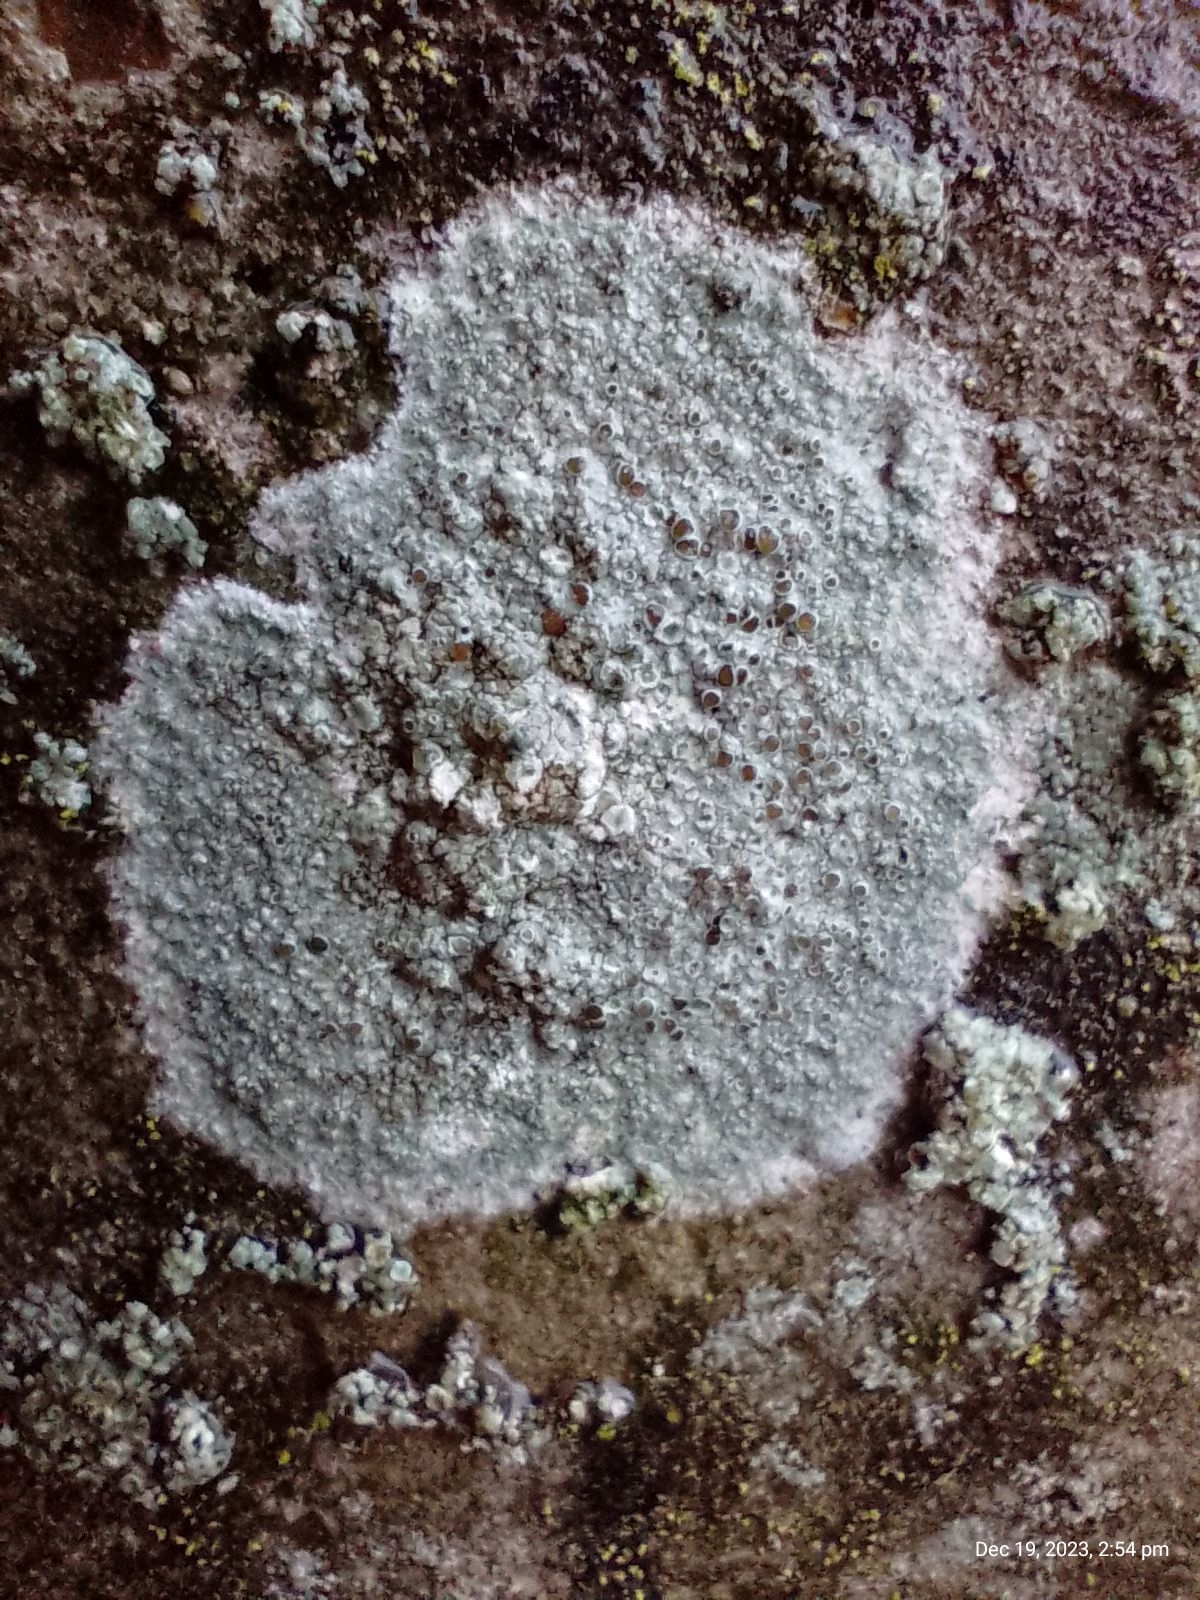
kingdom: Fungi
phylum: Ascomycota
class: Lecanoromycetes
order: Lecanorales
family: Lecanoraceae
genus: Lecanora
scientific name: Lecanora campestris
